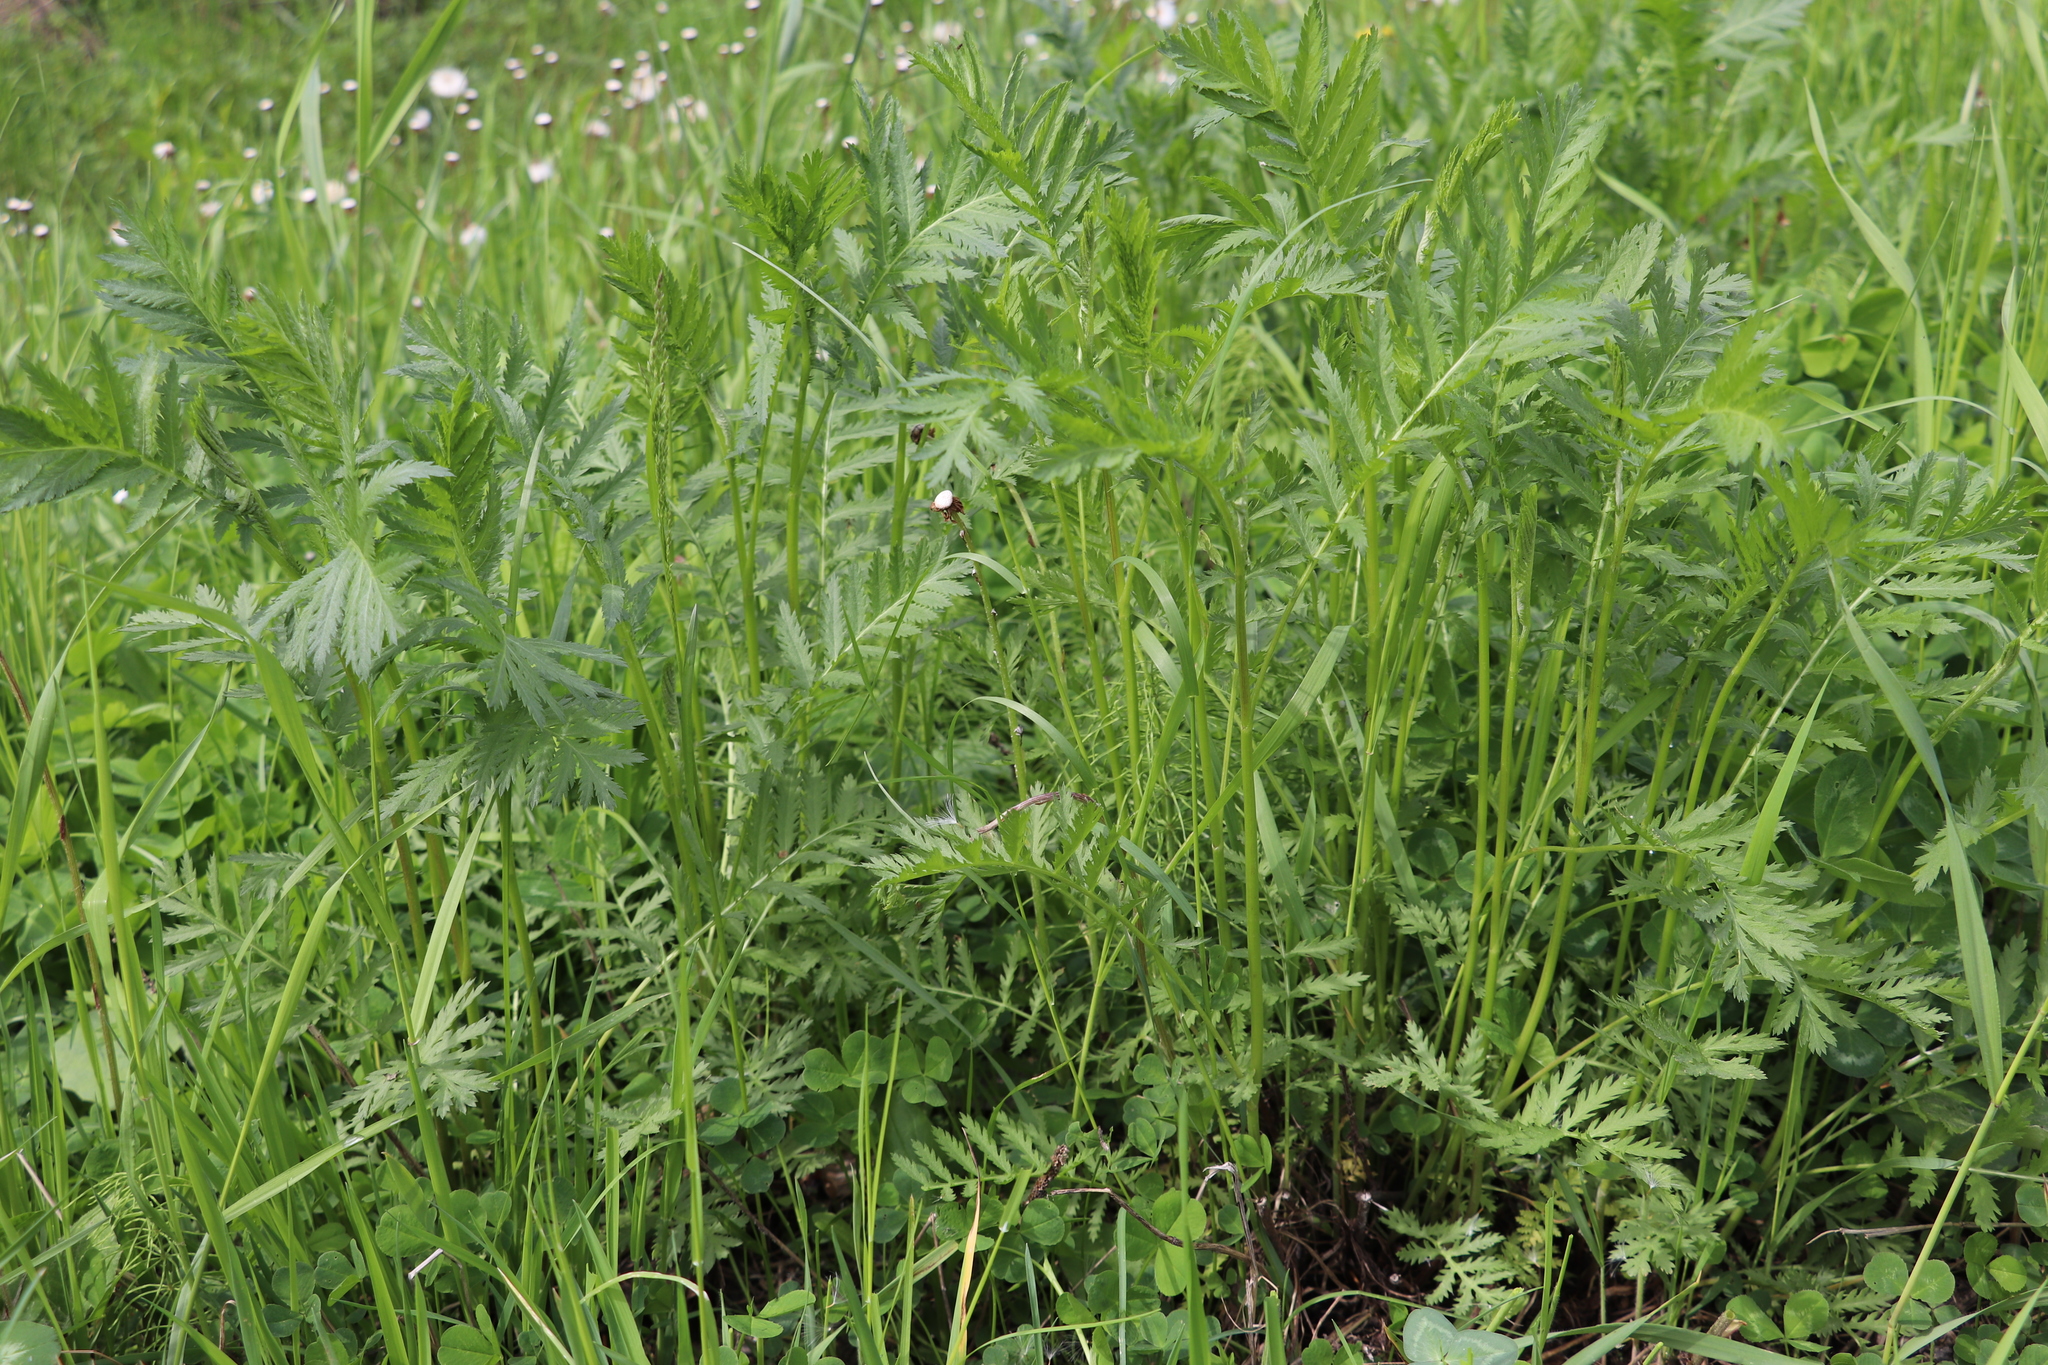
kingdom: Plantae
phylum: Tracheophyta
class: Magnoliopsida
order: Asterales
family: Asteraceae
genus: Tanacetum
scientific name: Tanacetum vulgare
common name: Common tansy
